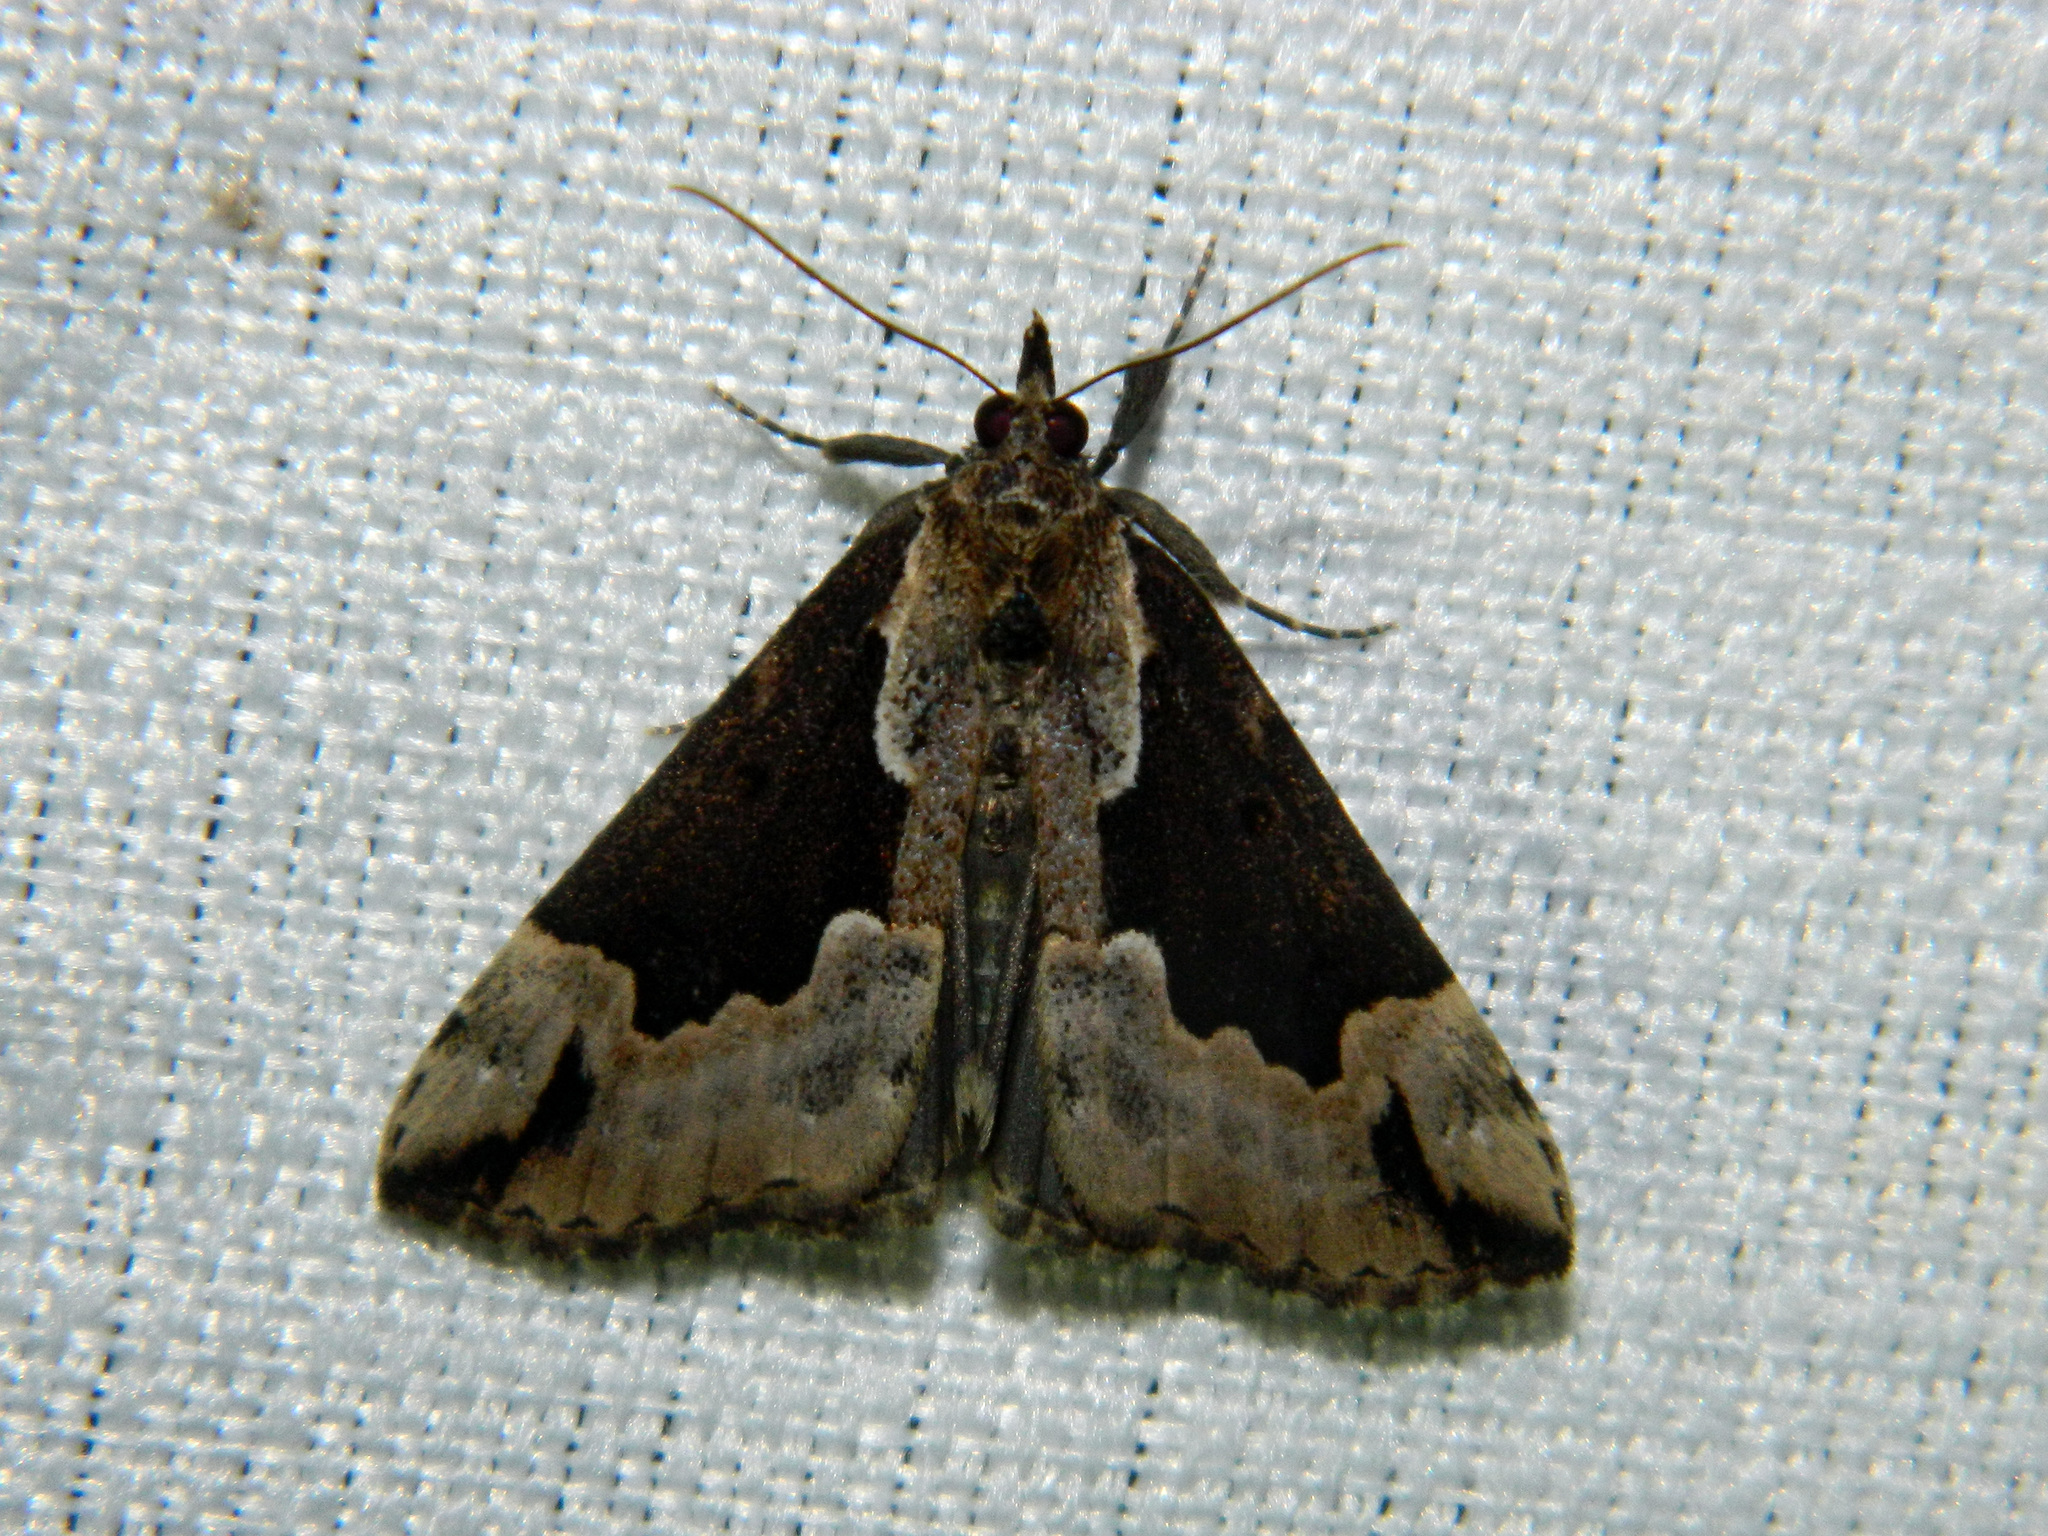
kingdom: Animalia
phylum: Arthropoda
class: Insecta
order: Lepidoptera
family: Erebidae
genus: Hypena
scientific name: Hypena baltimoralis
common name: Baltimore snout
